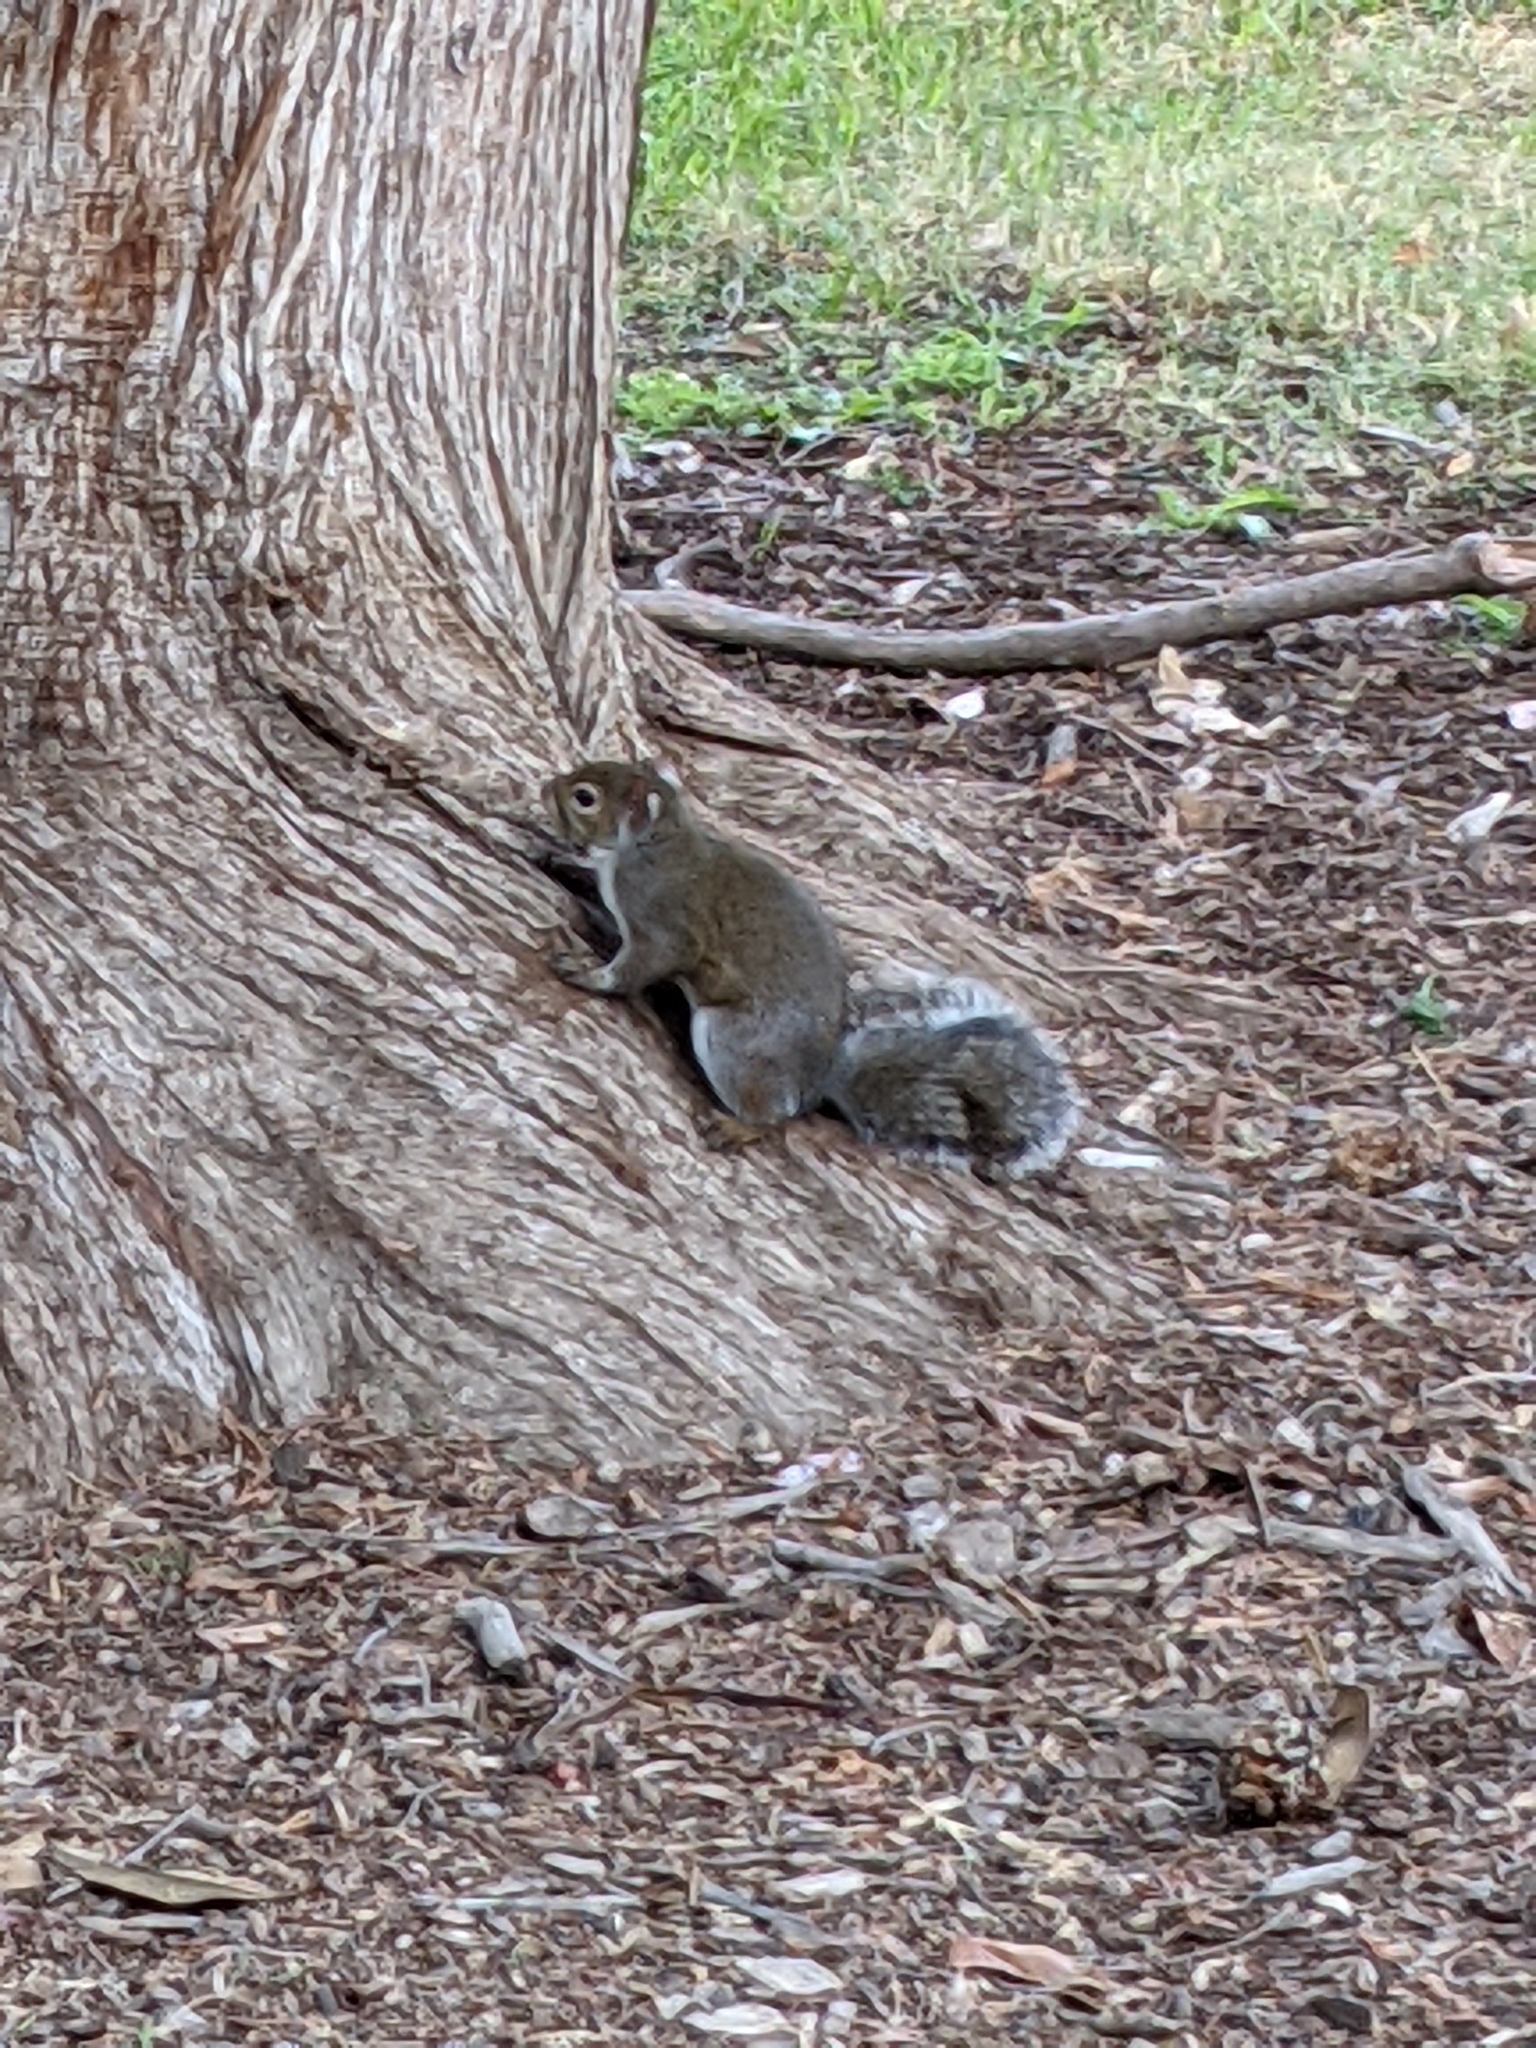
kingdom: Animalia
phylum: Chordata
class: Mammalia
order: Rodentia
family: Sciuridae
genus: Sciurus
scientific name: Sciurus carolinensis
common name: Eastern gray squirrel
